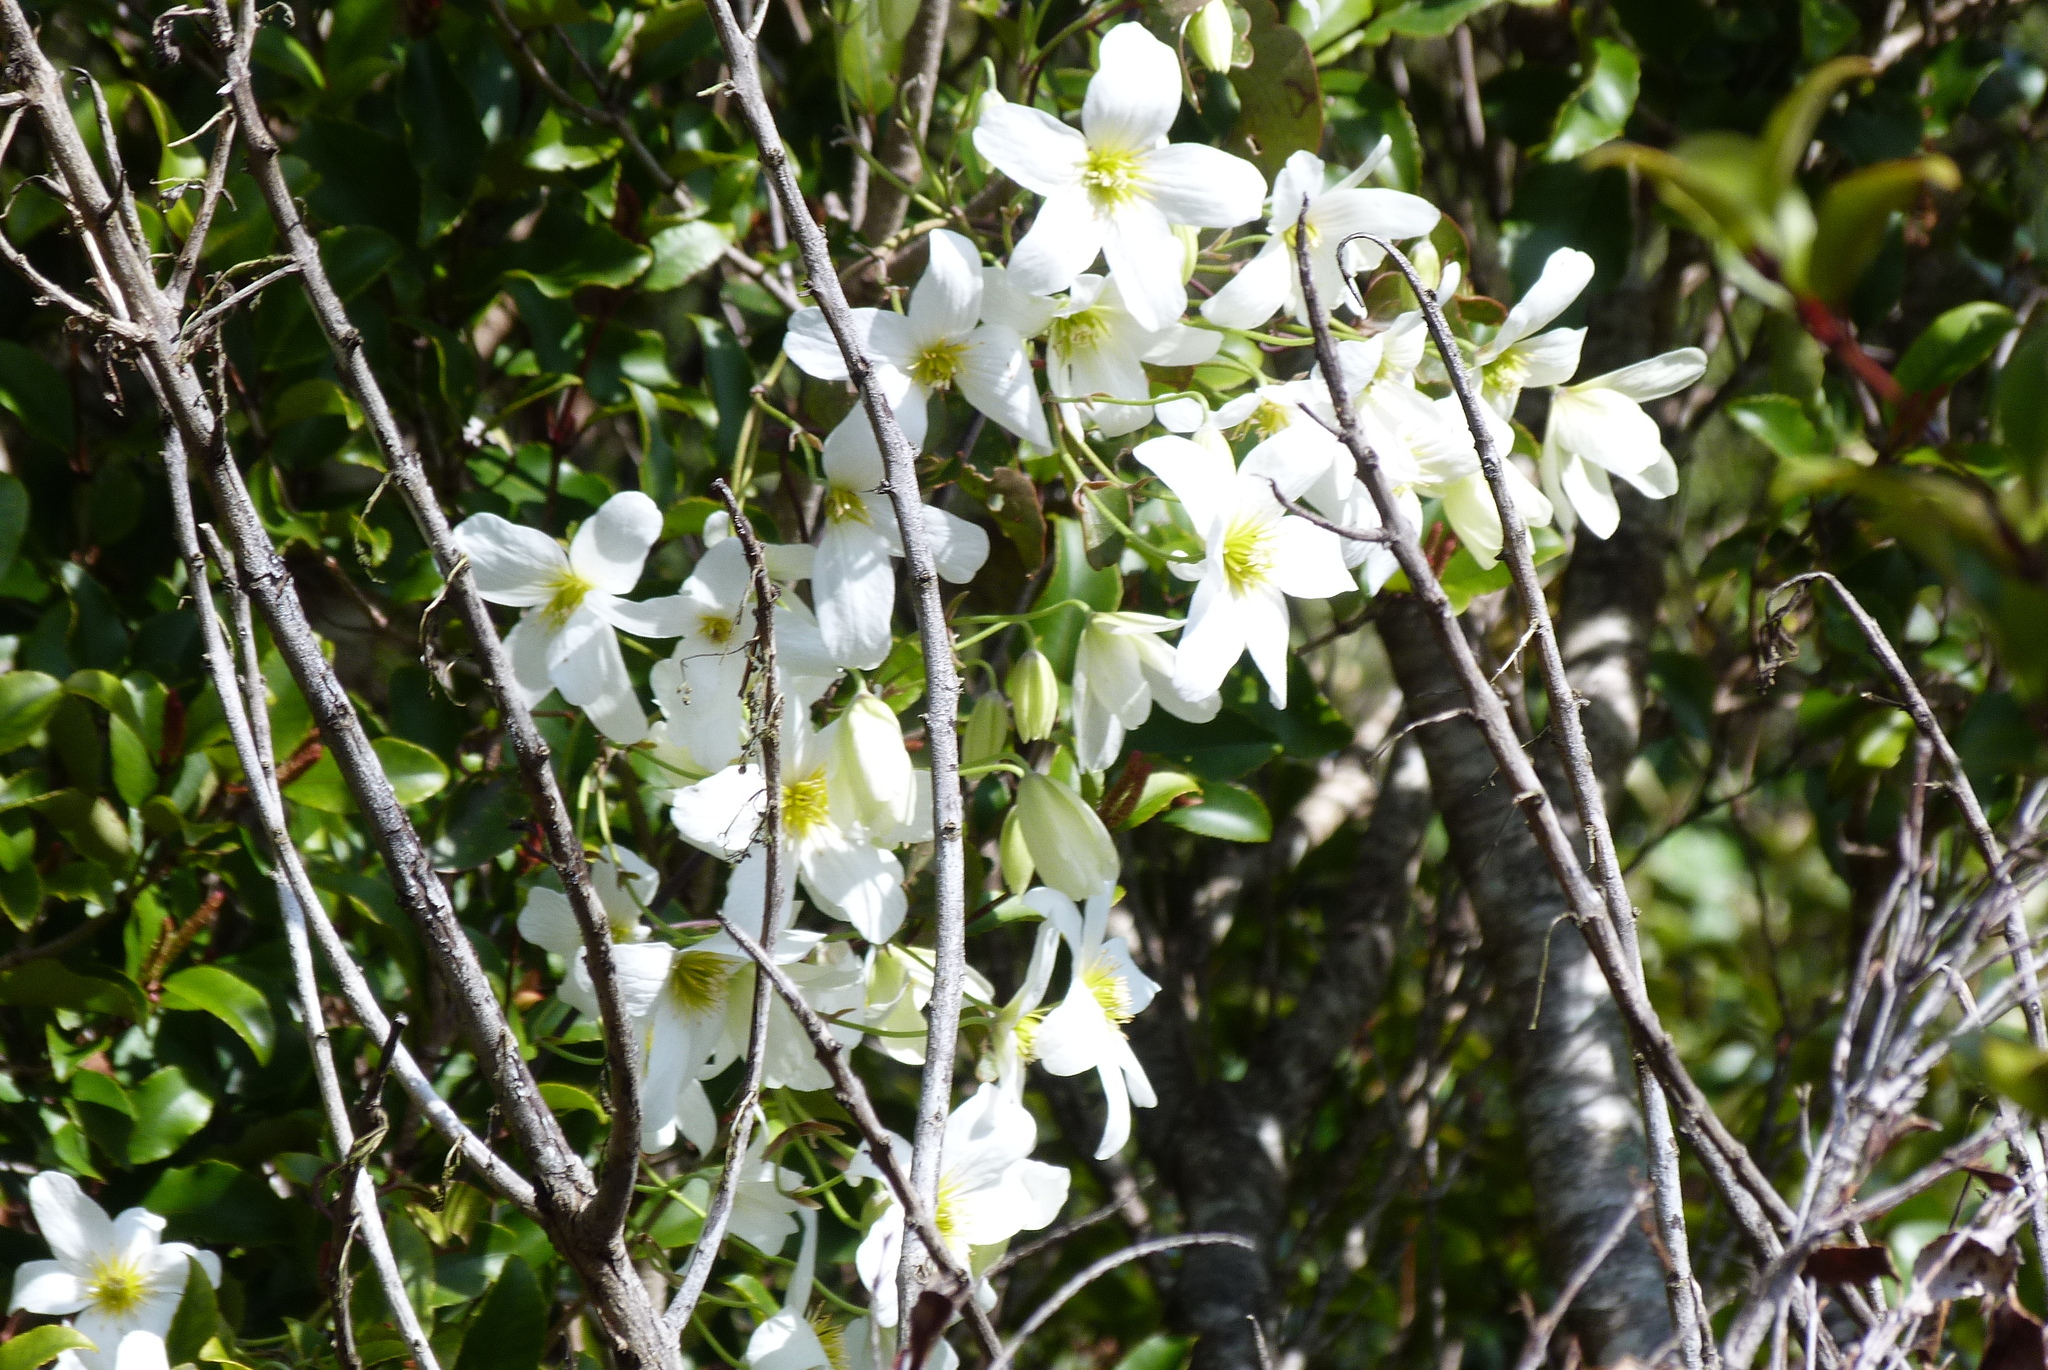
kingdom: Plantae
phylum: Tracheophyta
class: Magnoliopsida
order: Ranunculales
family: Ranunculaceae
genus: Clematis
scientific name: Clematis paniculata
